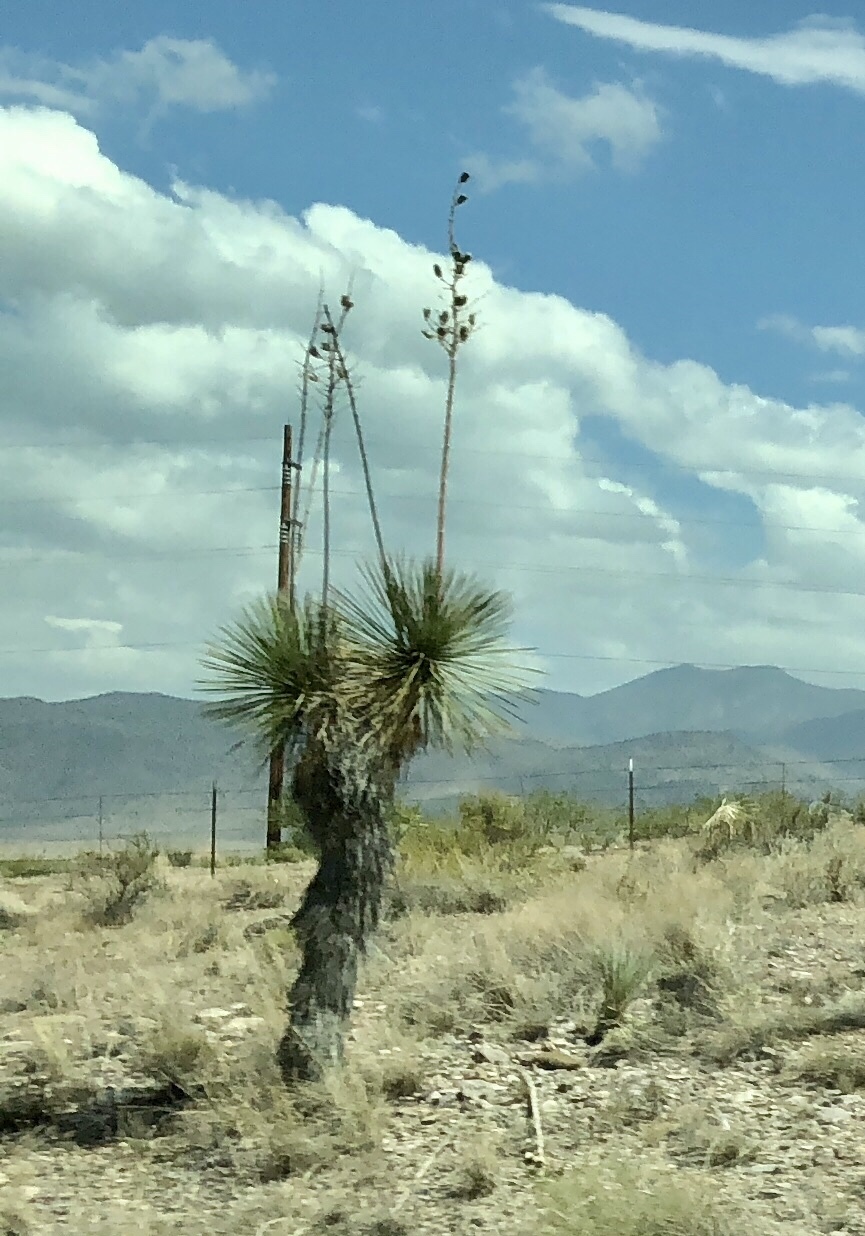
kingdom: Plantae
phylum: Tracheophyta
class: Liliopsida
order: Asparagales
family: Asparagaceae
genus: Yucca
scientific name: Yucca elata
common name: Palmella
